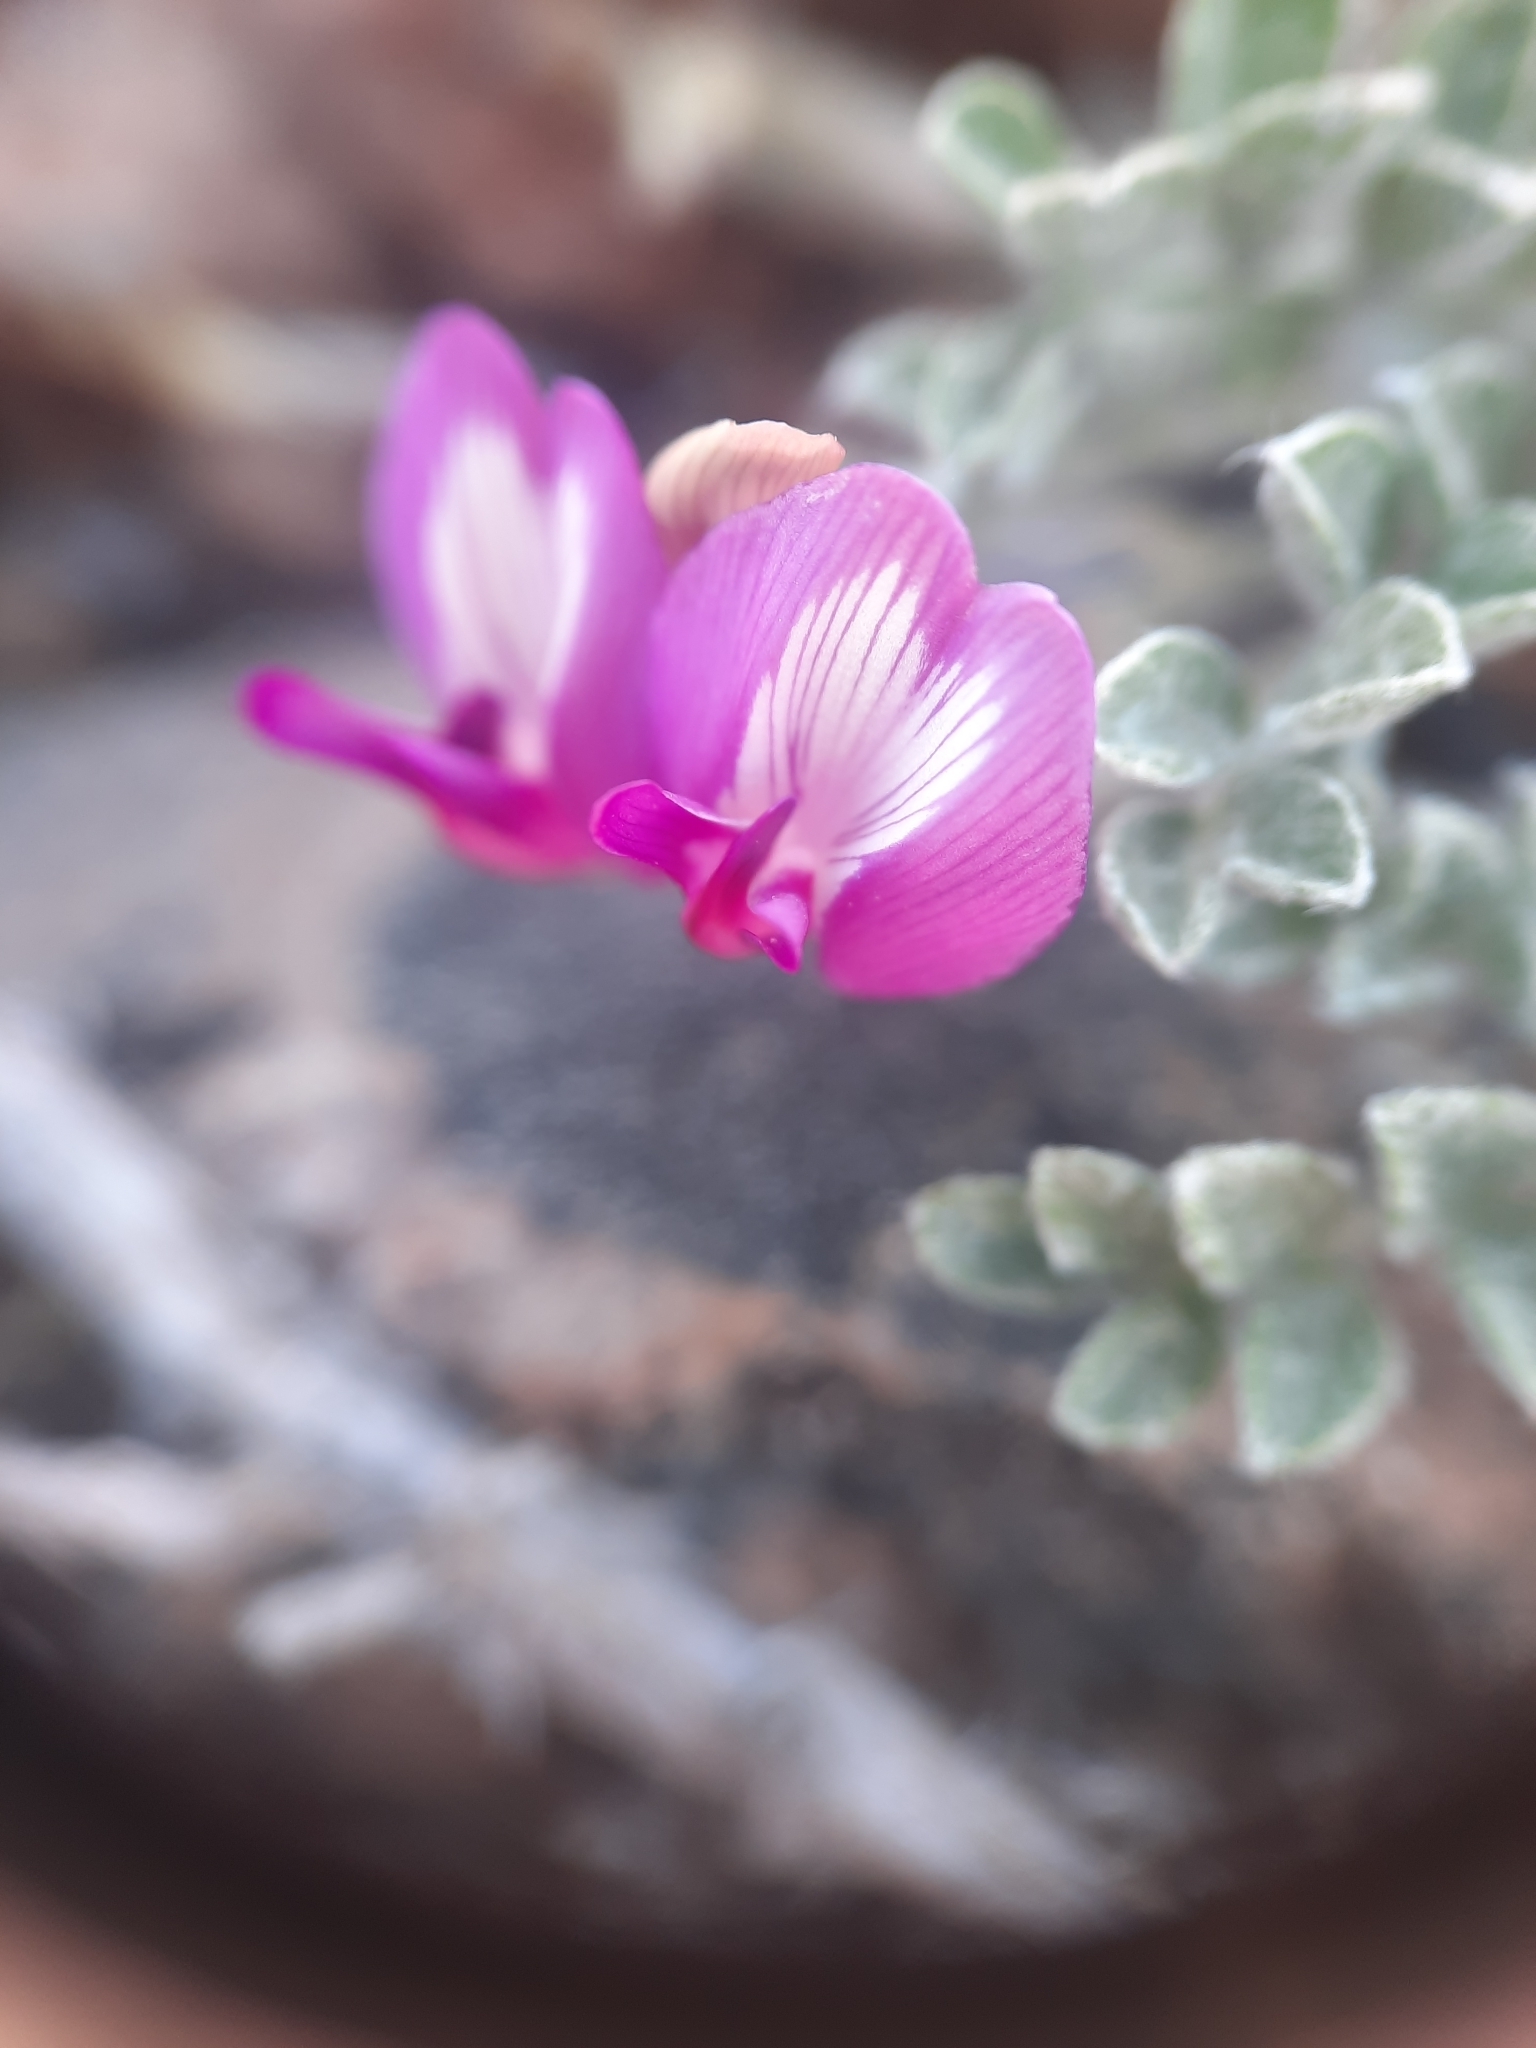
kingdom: Plantae
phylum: Tracheophyta
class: Magnoliopsida
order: Fabales
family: Fabaceae
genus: Astragalus
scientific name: Astragalus purshii
